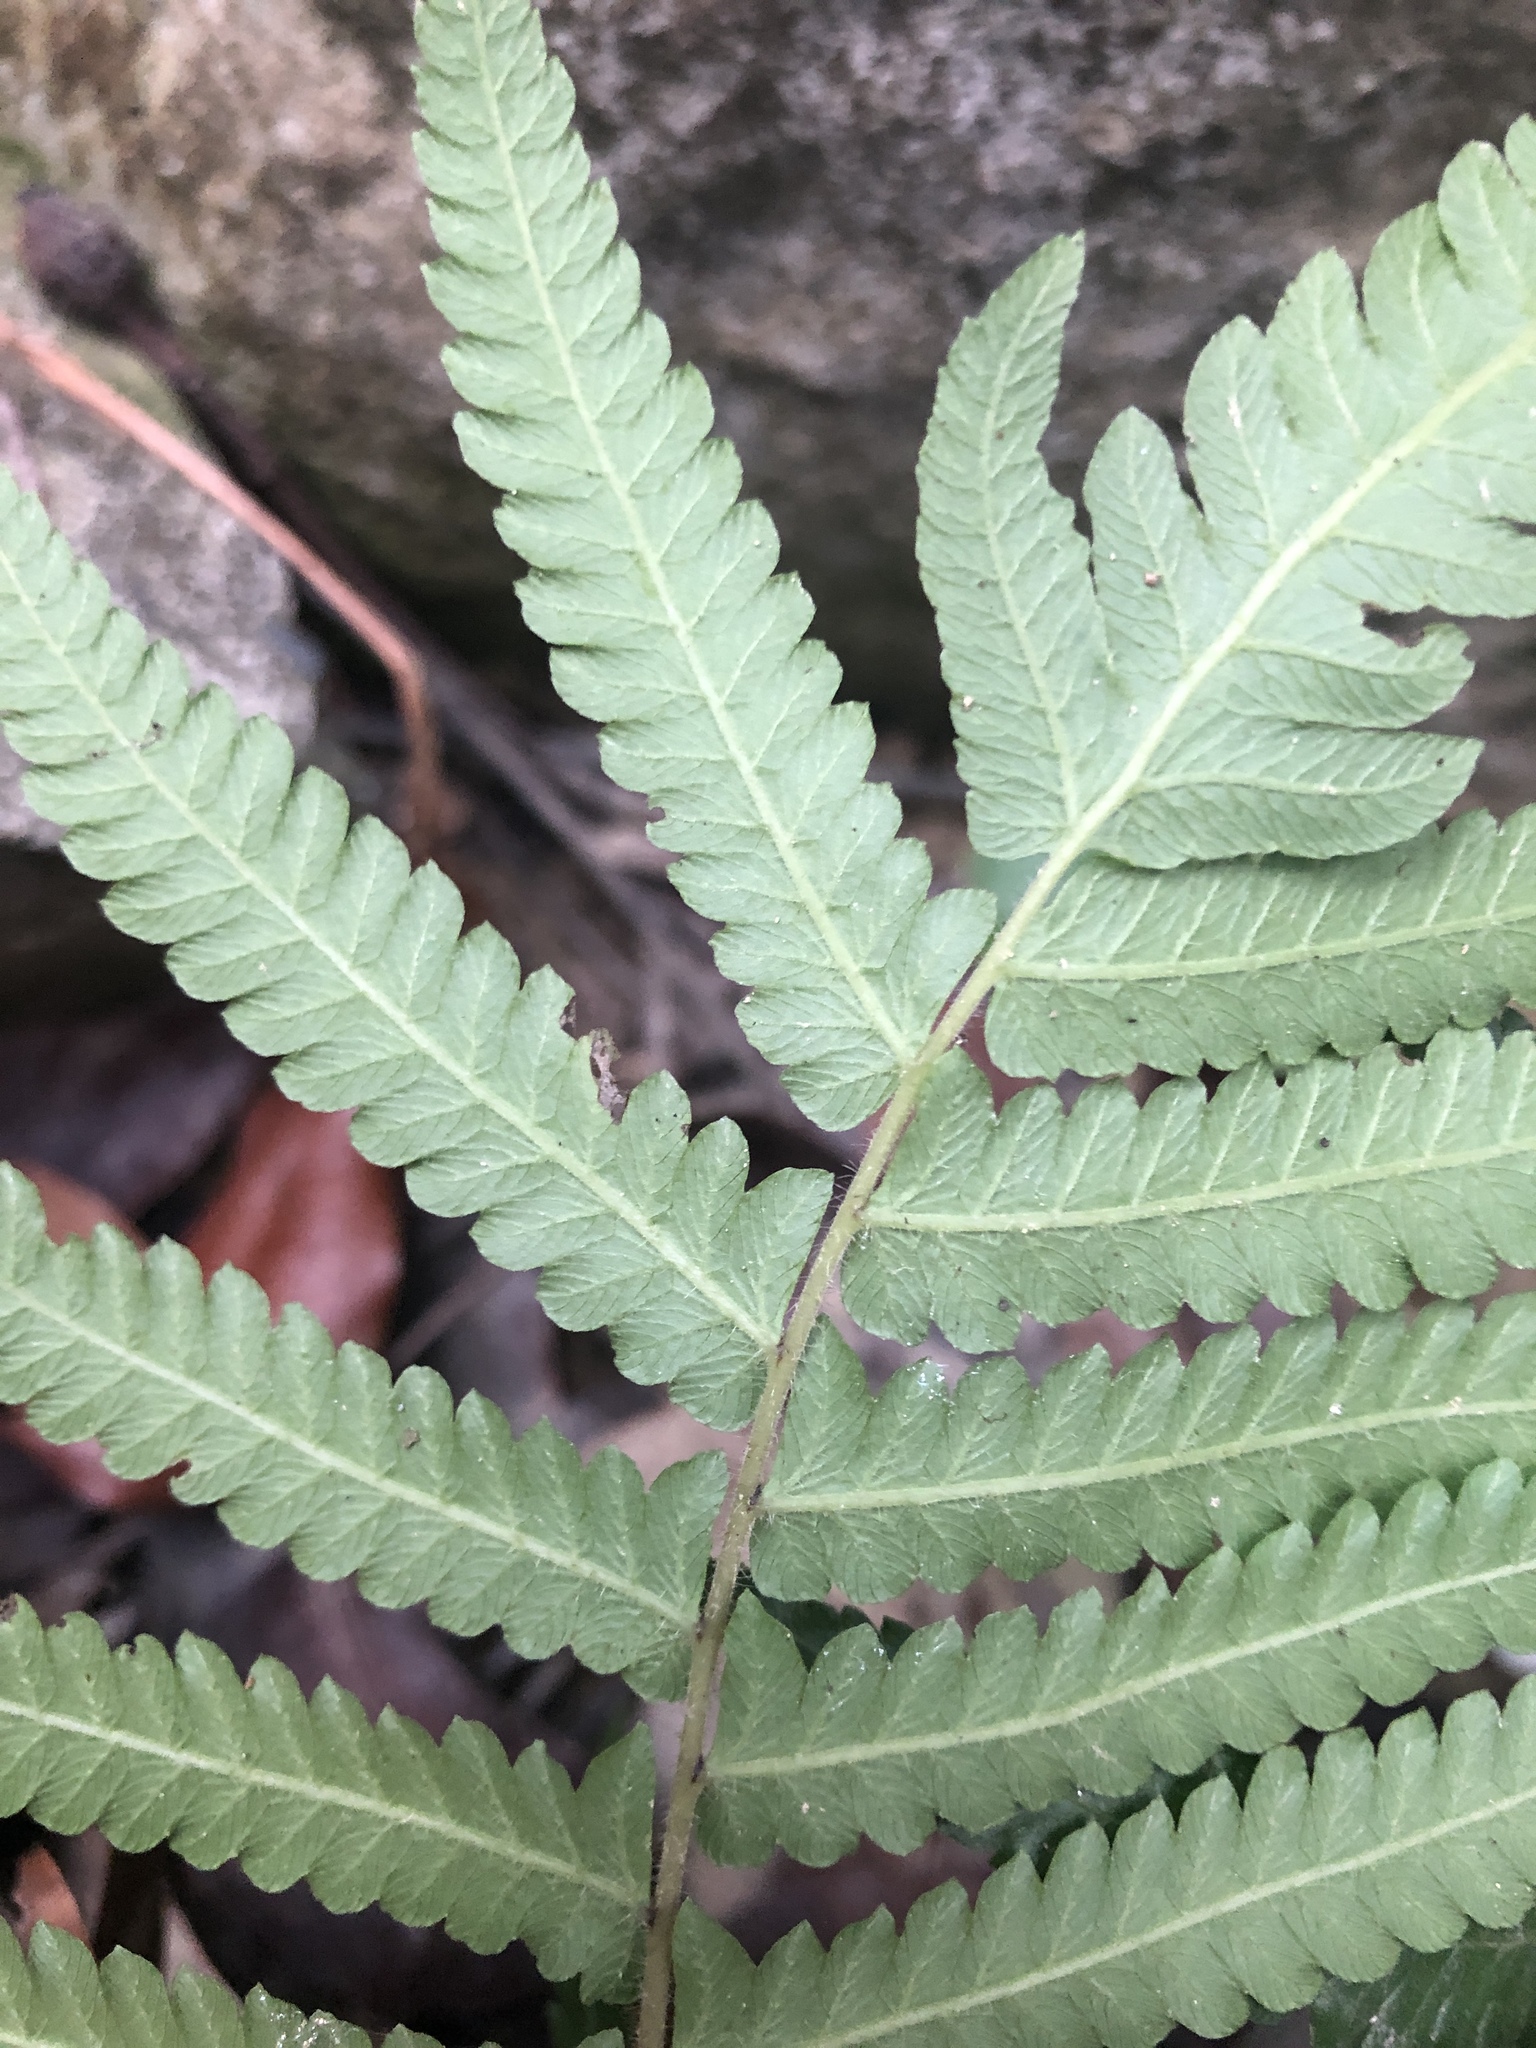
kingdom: Plantae
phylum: Tracheophyta
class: Polypodiopsida
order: Polypodiales
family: Thelypteridaceae
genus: Christella
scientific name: Christella acuminata
